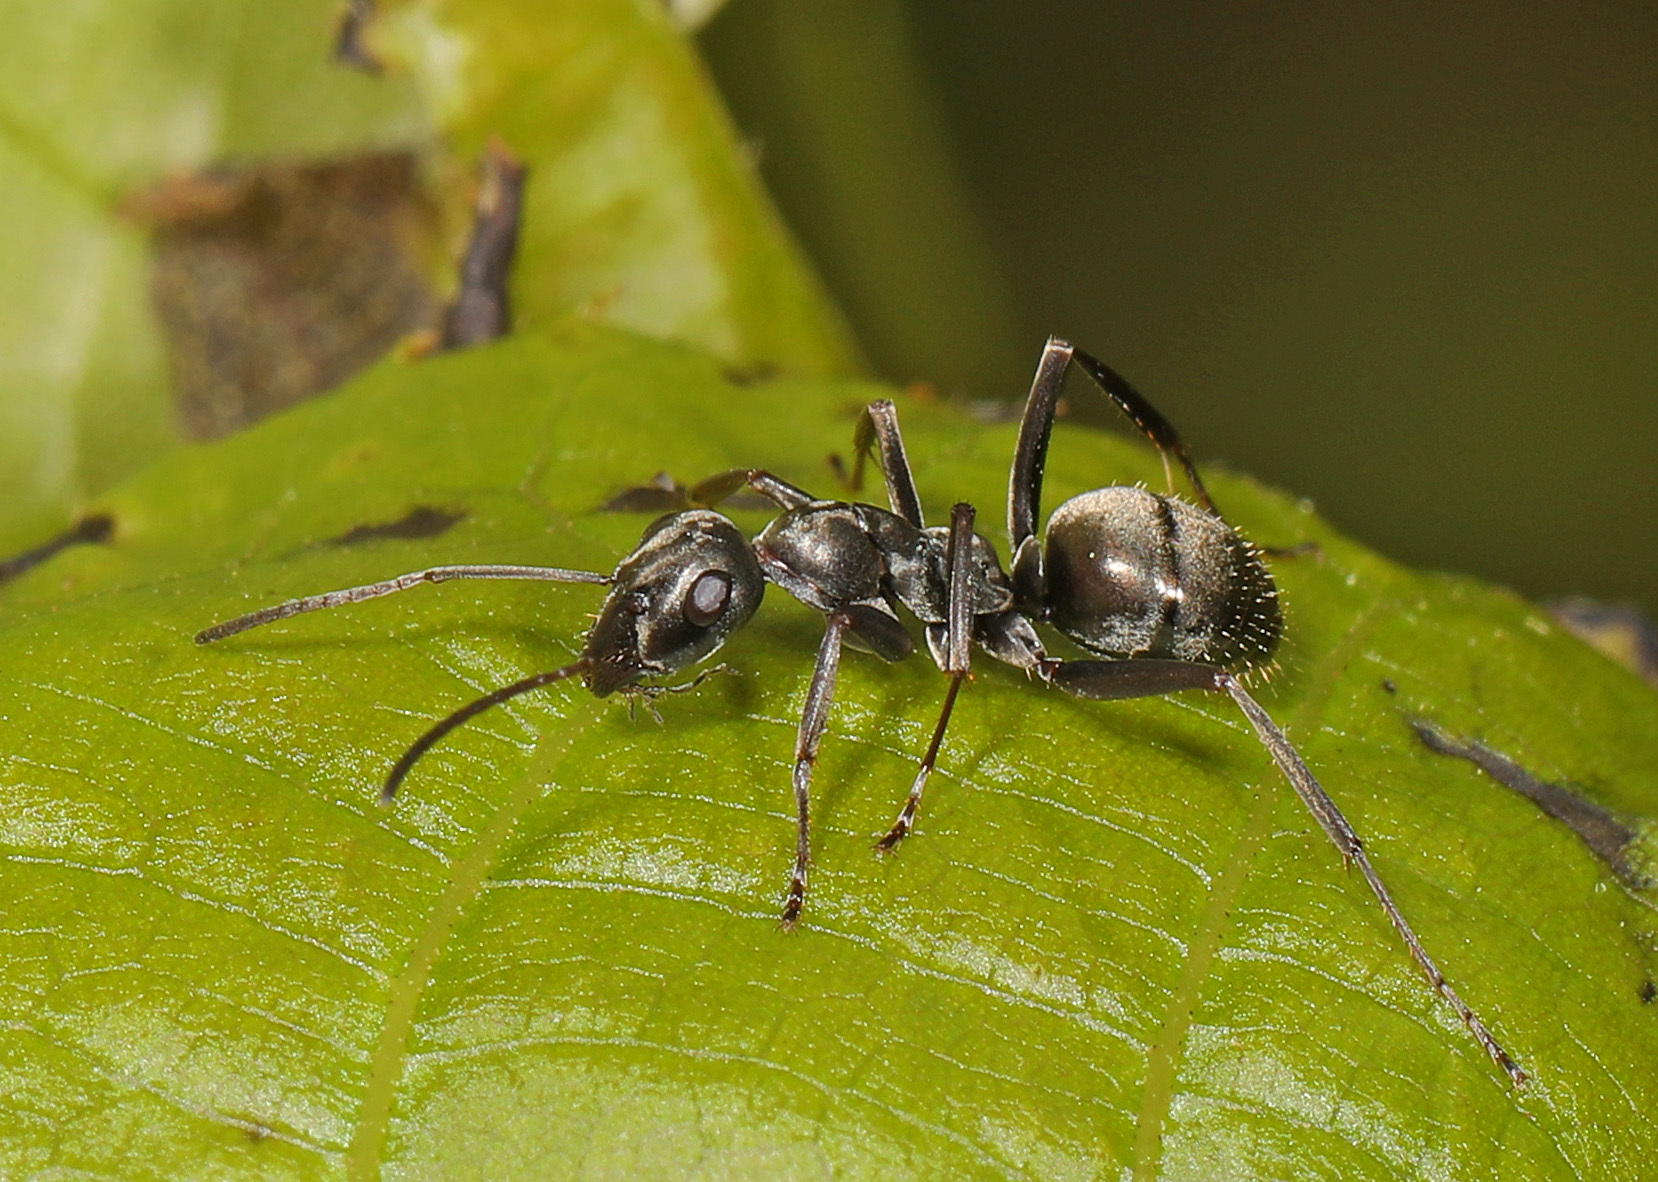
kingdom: Animalia
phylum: Arthropoda
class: Insecta
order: Hymenoptera
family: Formicidae
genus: Formica
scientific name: Formica subsericea
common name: Silky field ant
